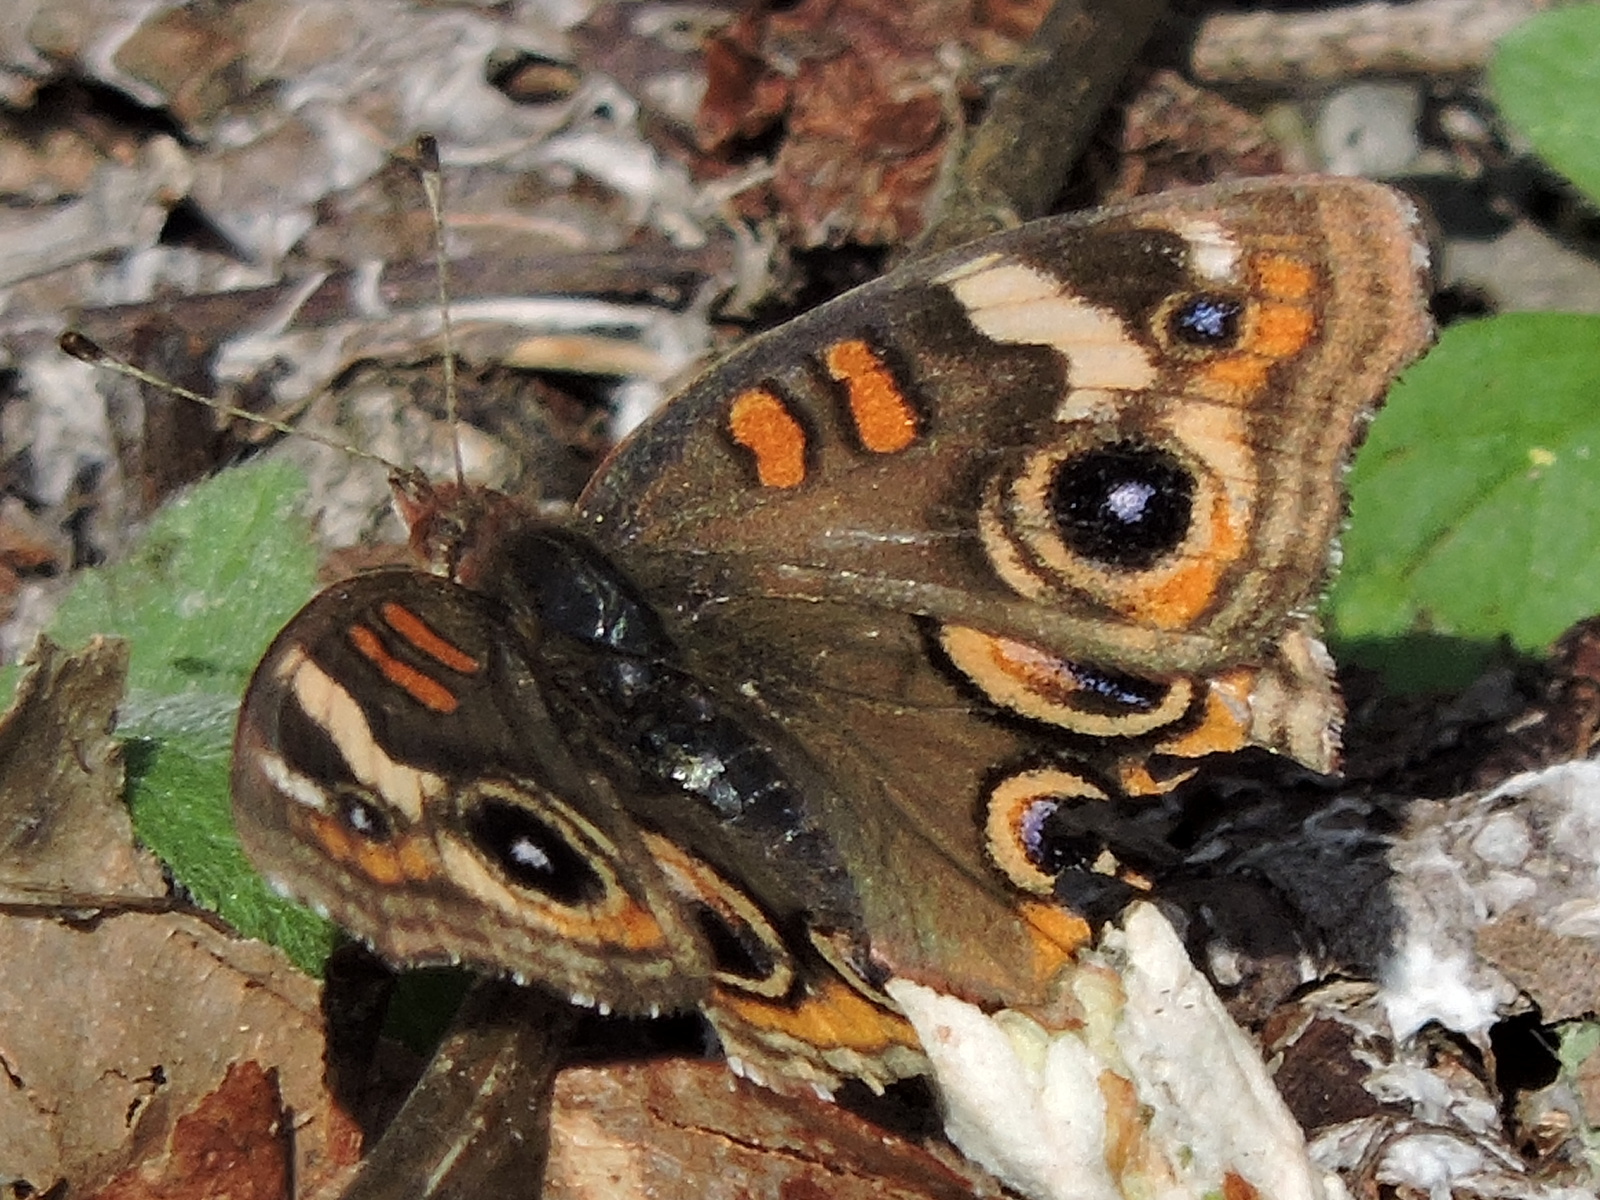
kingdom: Animalia
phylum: Arthropoda
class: Insecta
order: Lepidoptera
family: Nymphalidae
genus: Junonia
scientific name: Junonia coenia
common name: Common buckeye
